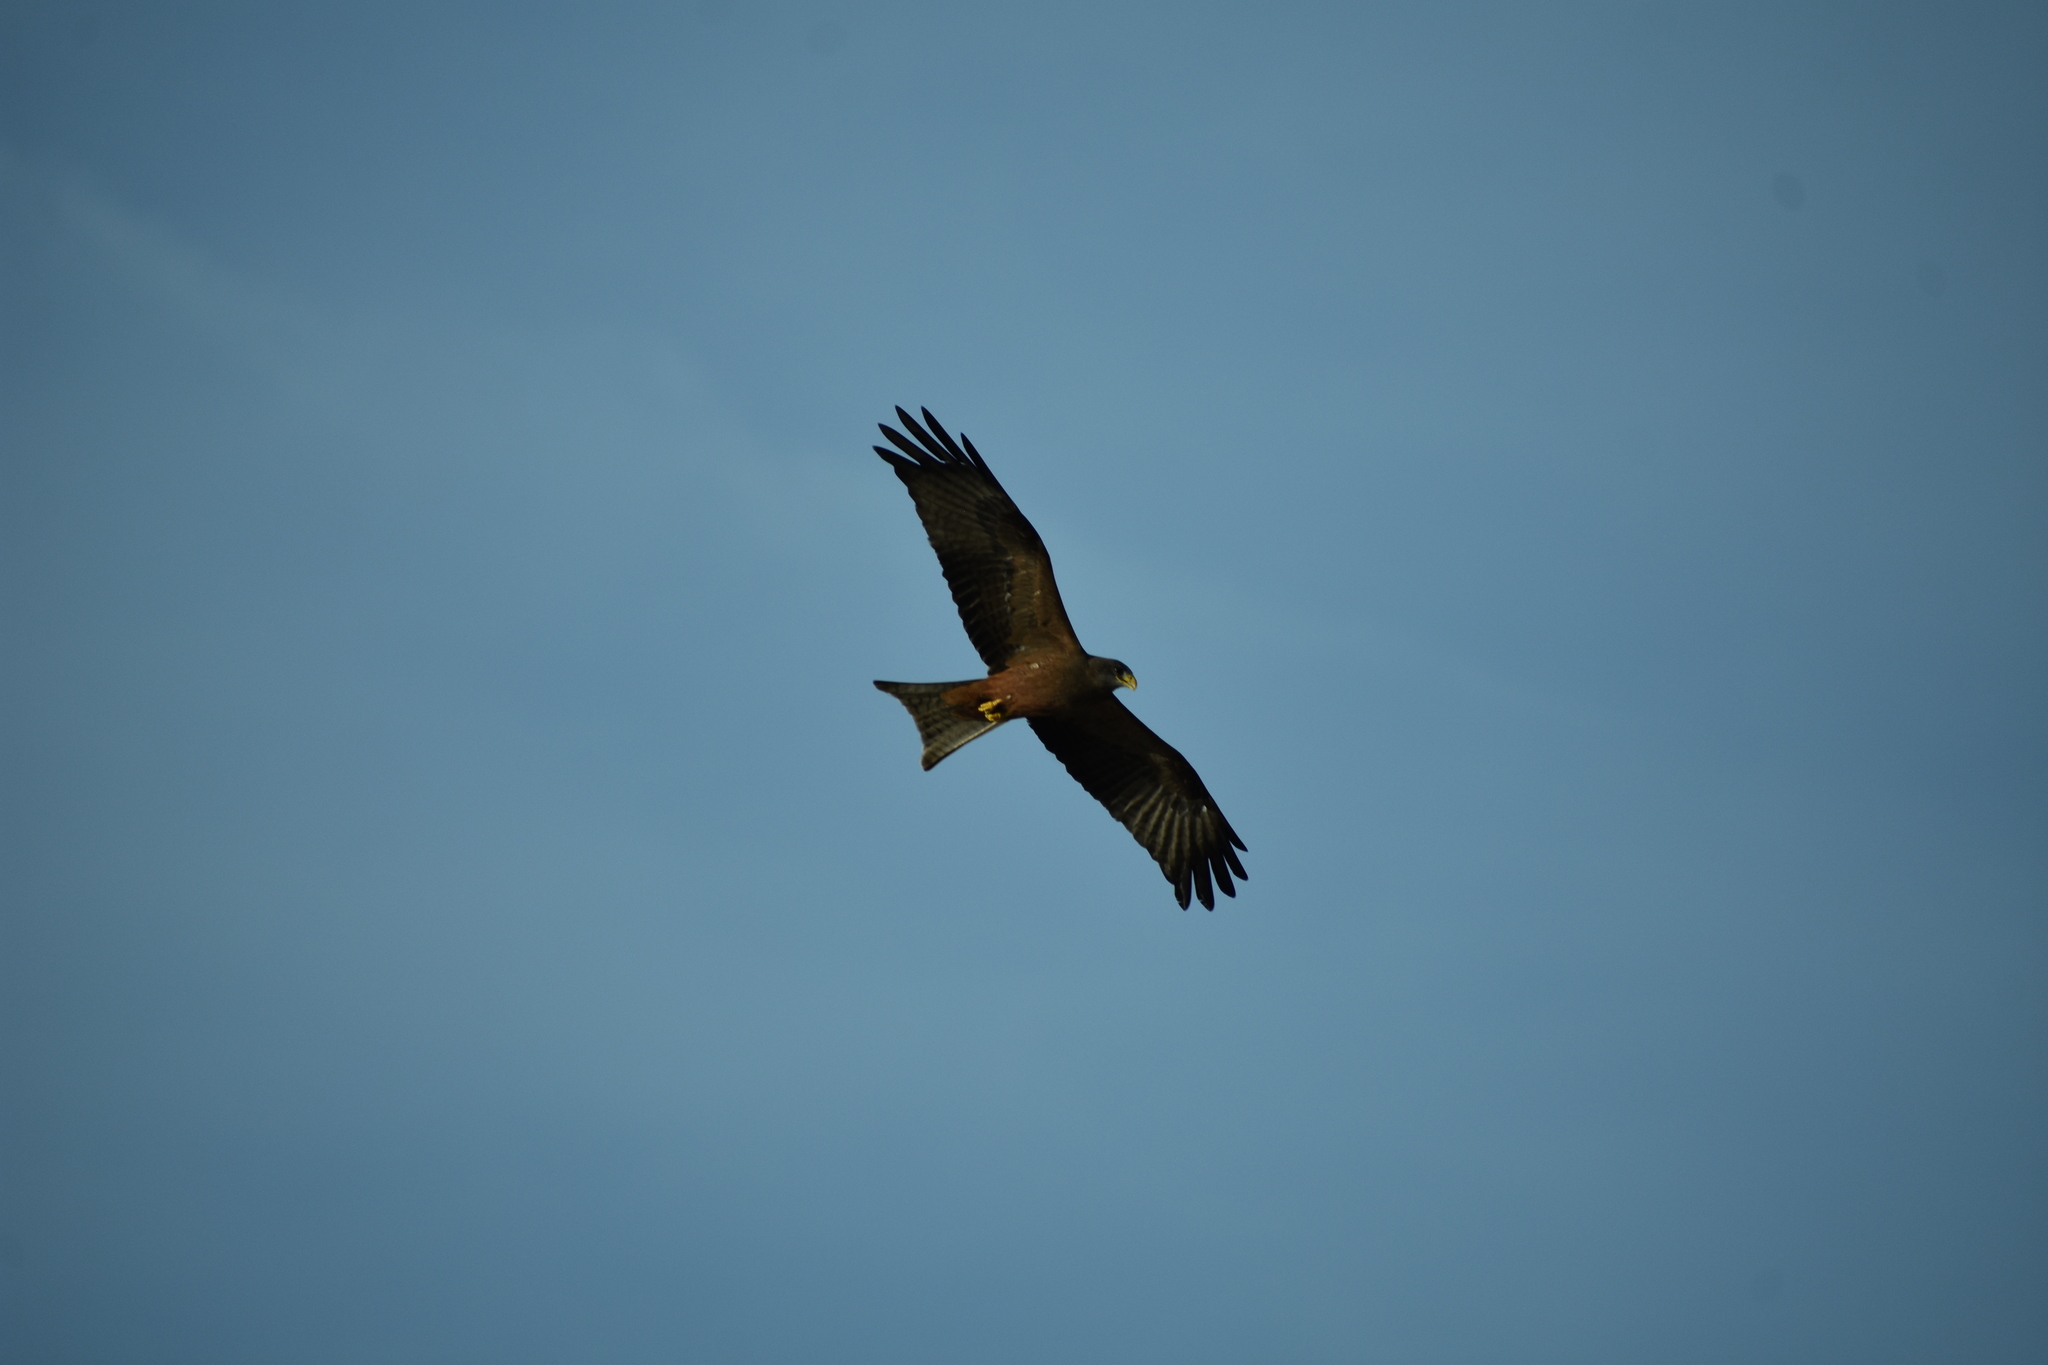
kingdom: Animalia
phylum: Chordata
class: Aves
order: Accipitriformes
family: Accipitridae
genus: Milvus
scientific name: Milvus migrans
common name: Black kite
